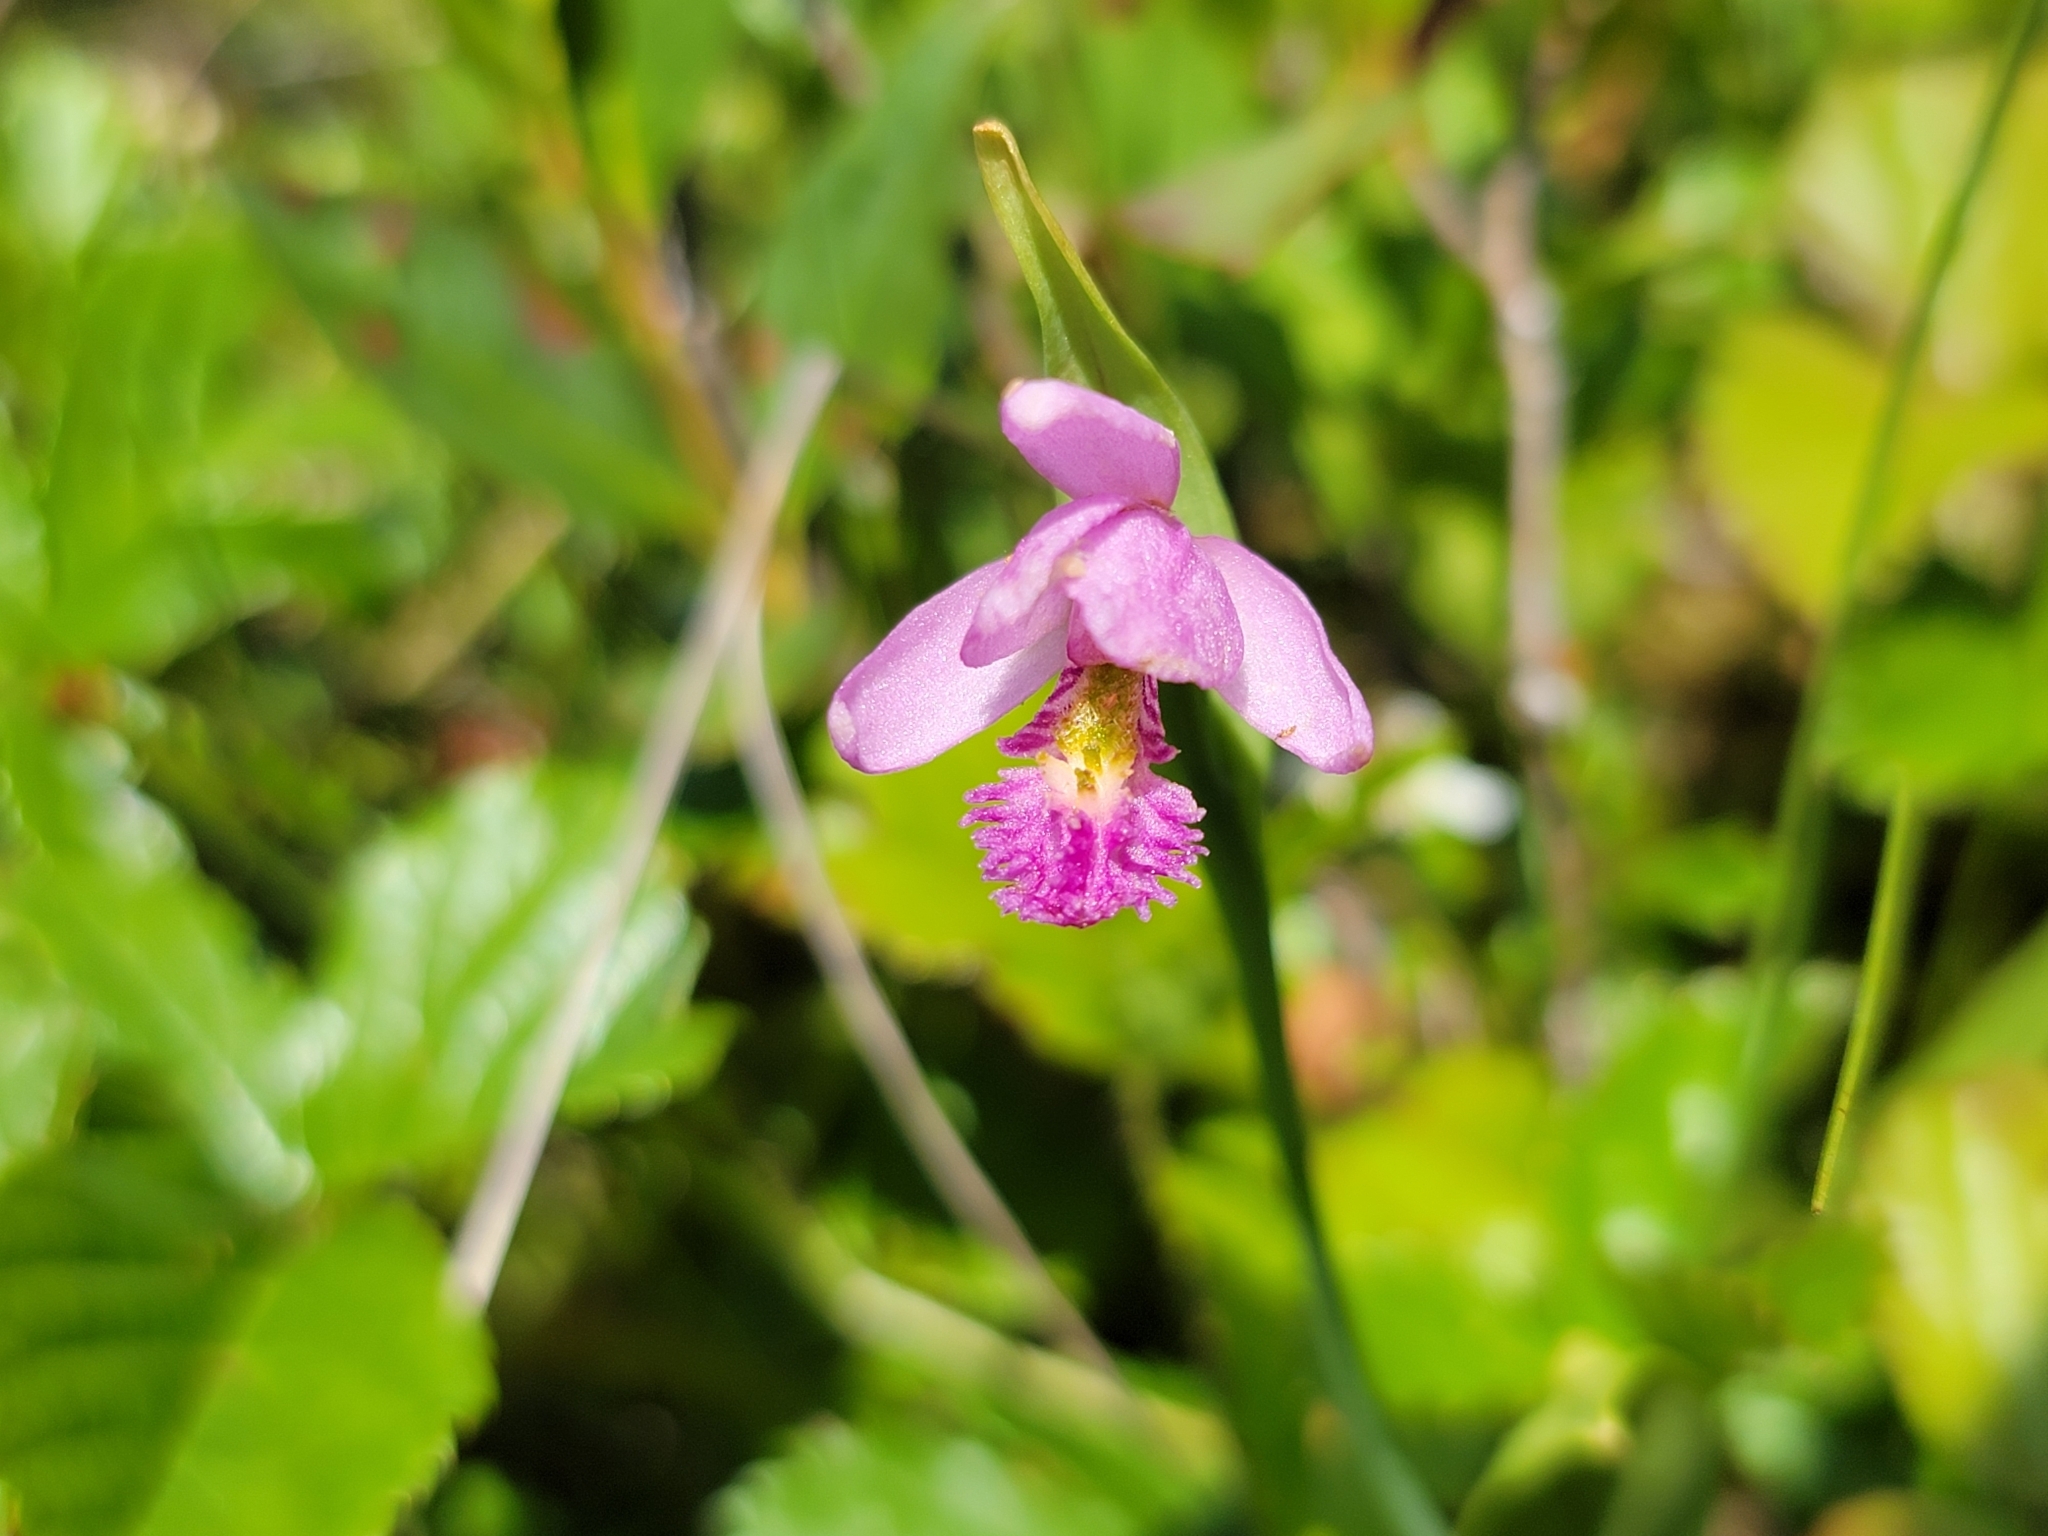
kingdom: Plantae
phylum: Tracheophyta
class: Liliopsida
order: Asparagales
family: Orchidaceae
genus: Pogonia
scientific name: Pogonia ophioglossoides
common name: Rose pogonia
